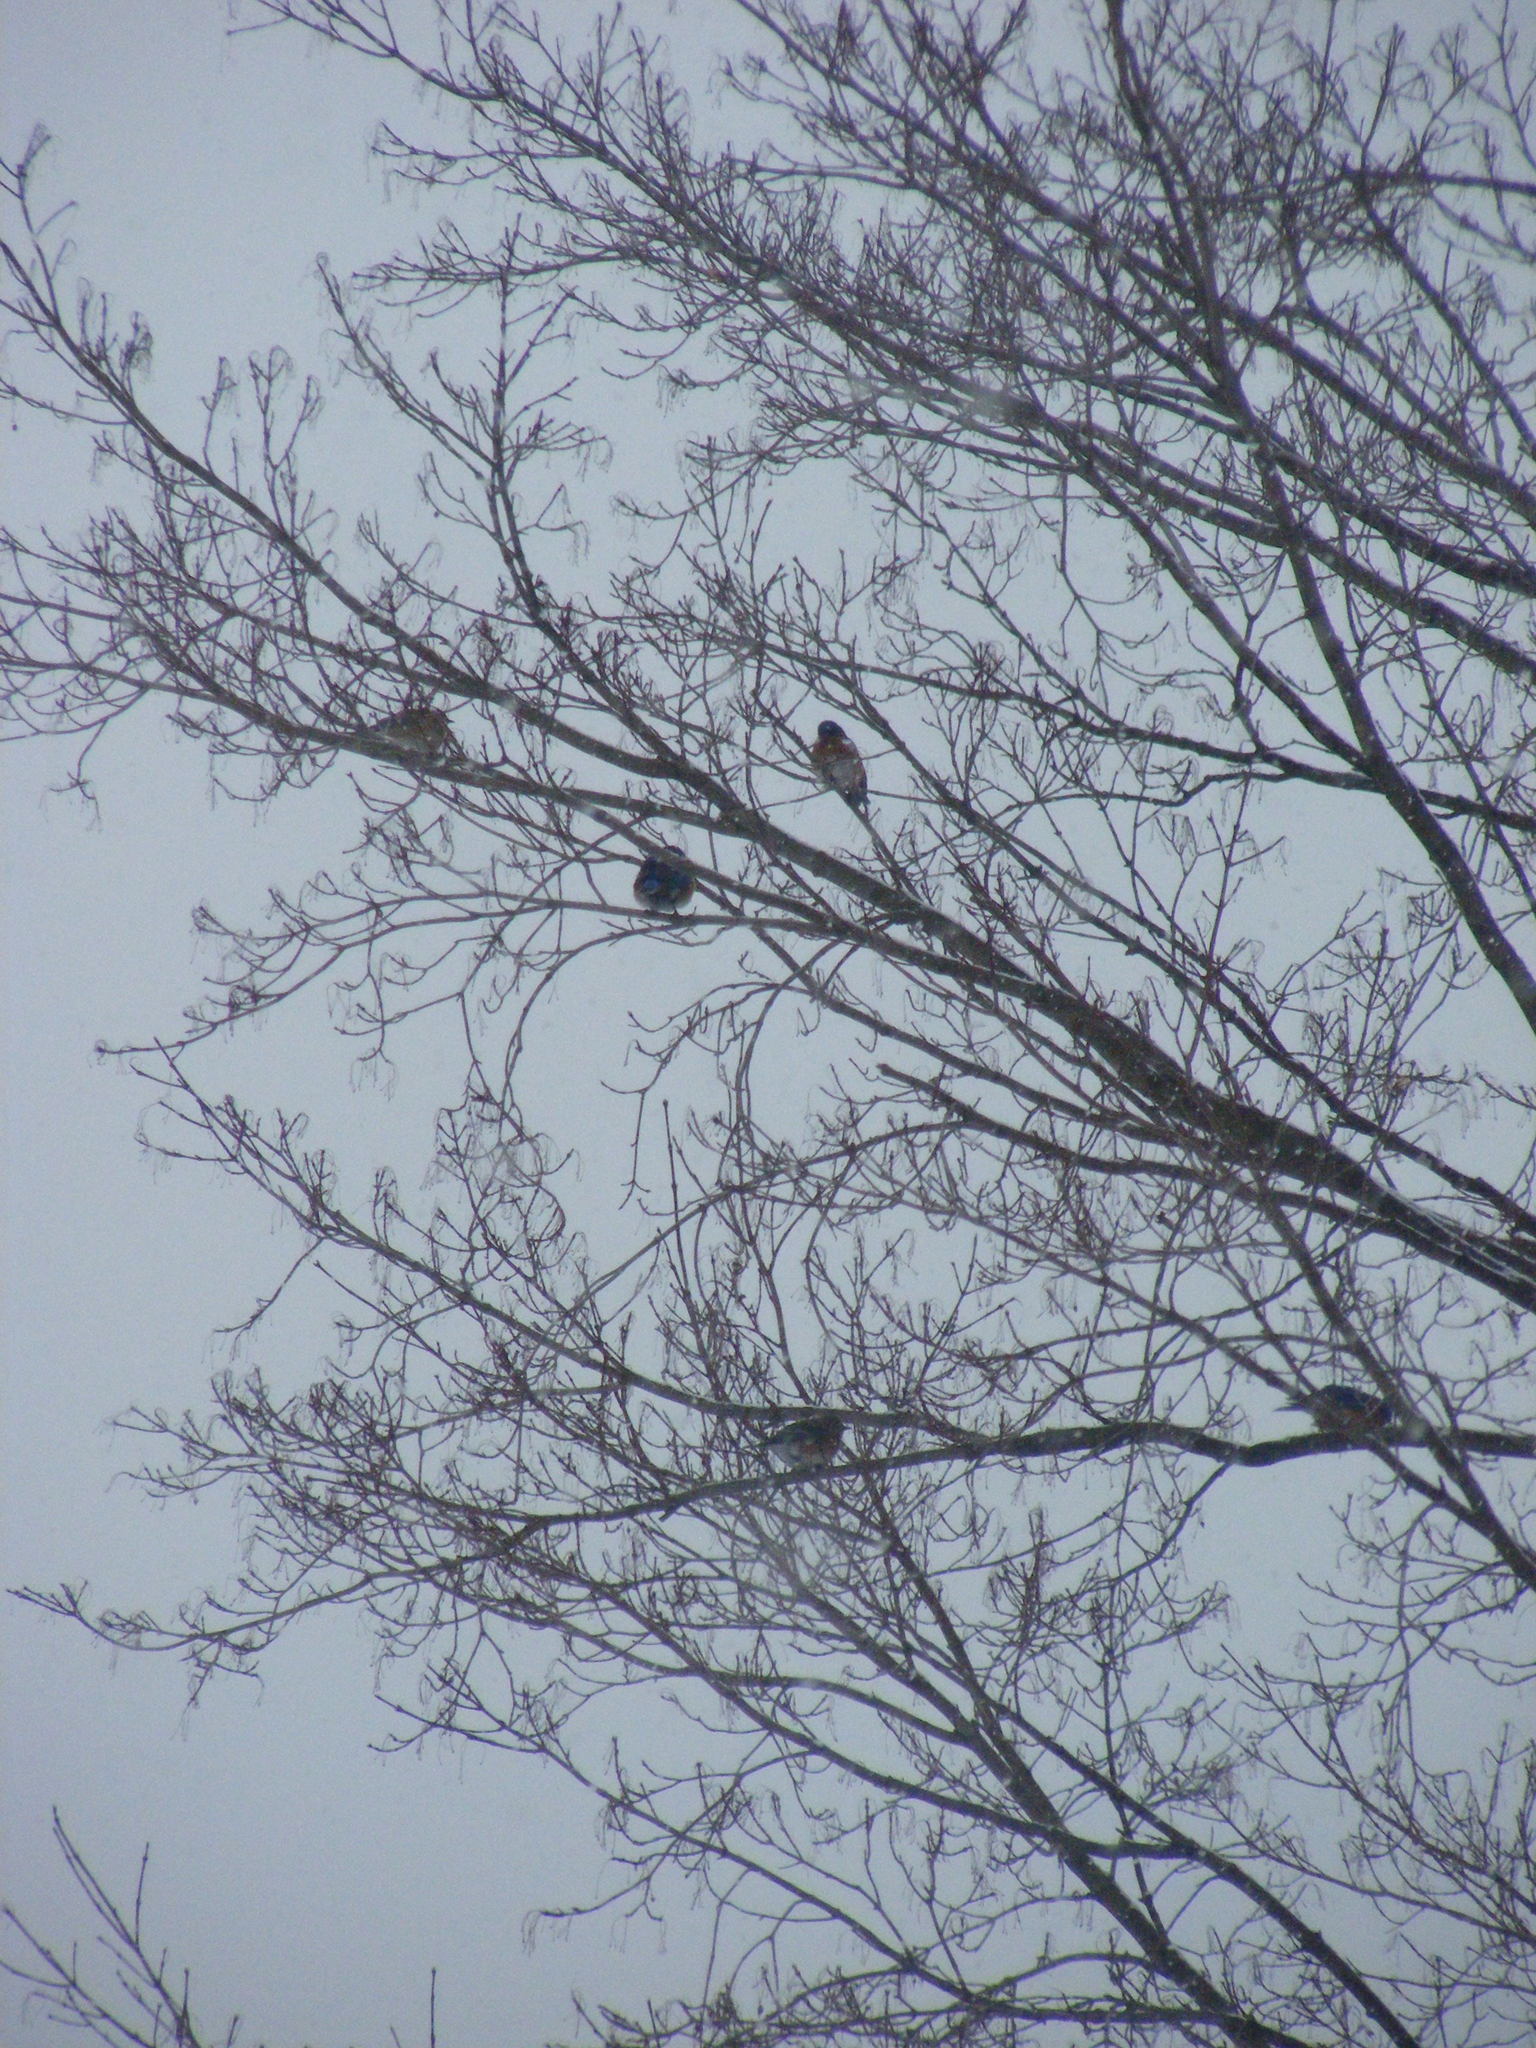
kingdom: Animalia
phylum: Chordata
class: Aves
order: Passeriformes
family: Turdidae
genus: Sialia
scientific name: Sialia sialis
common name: Eastern bluebird
